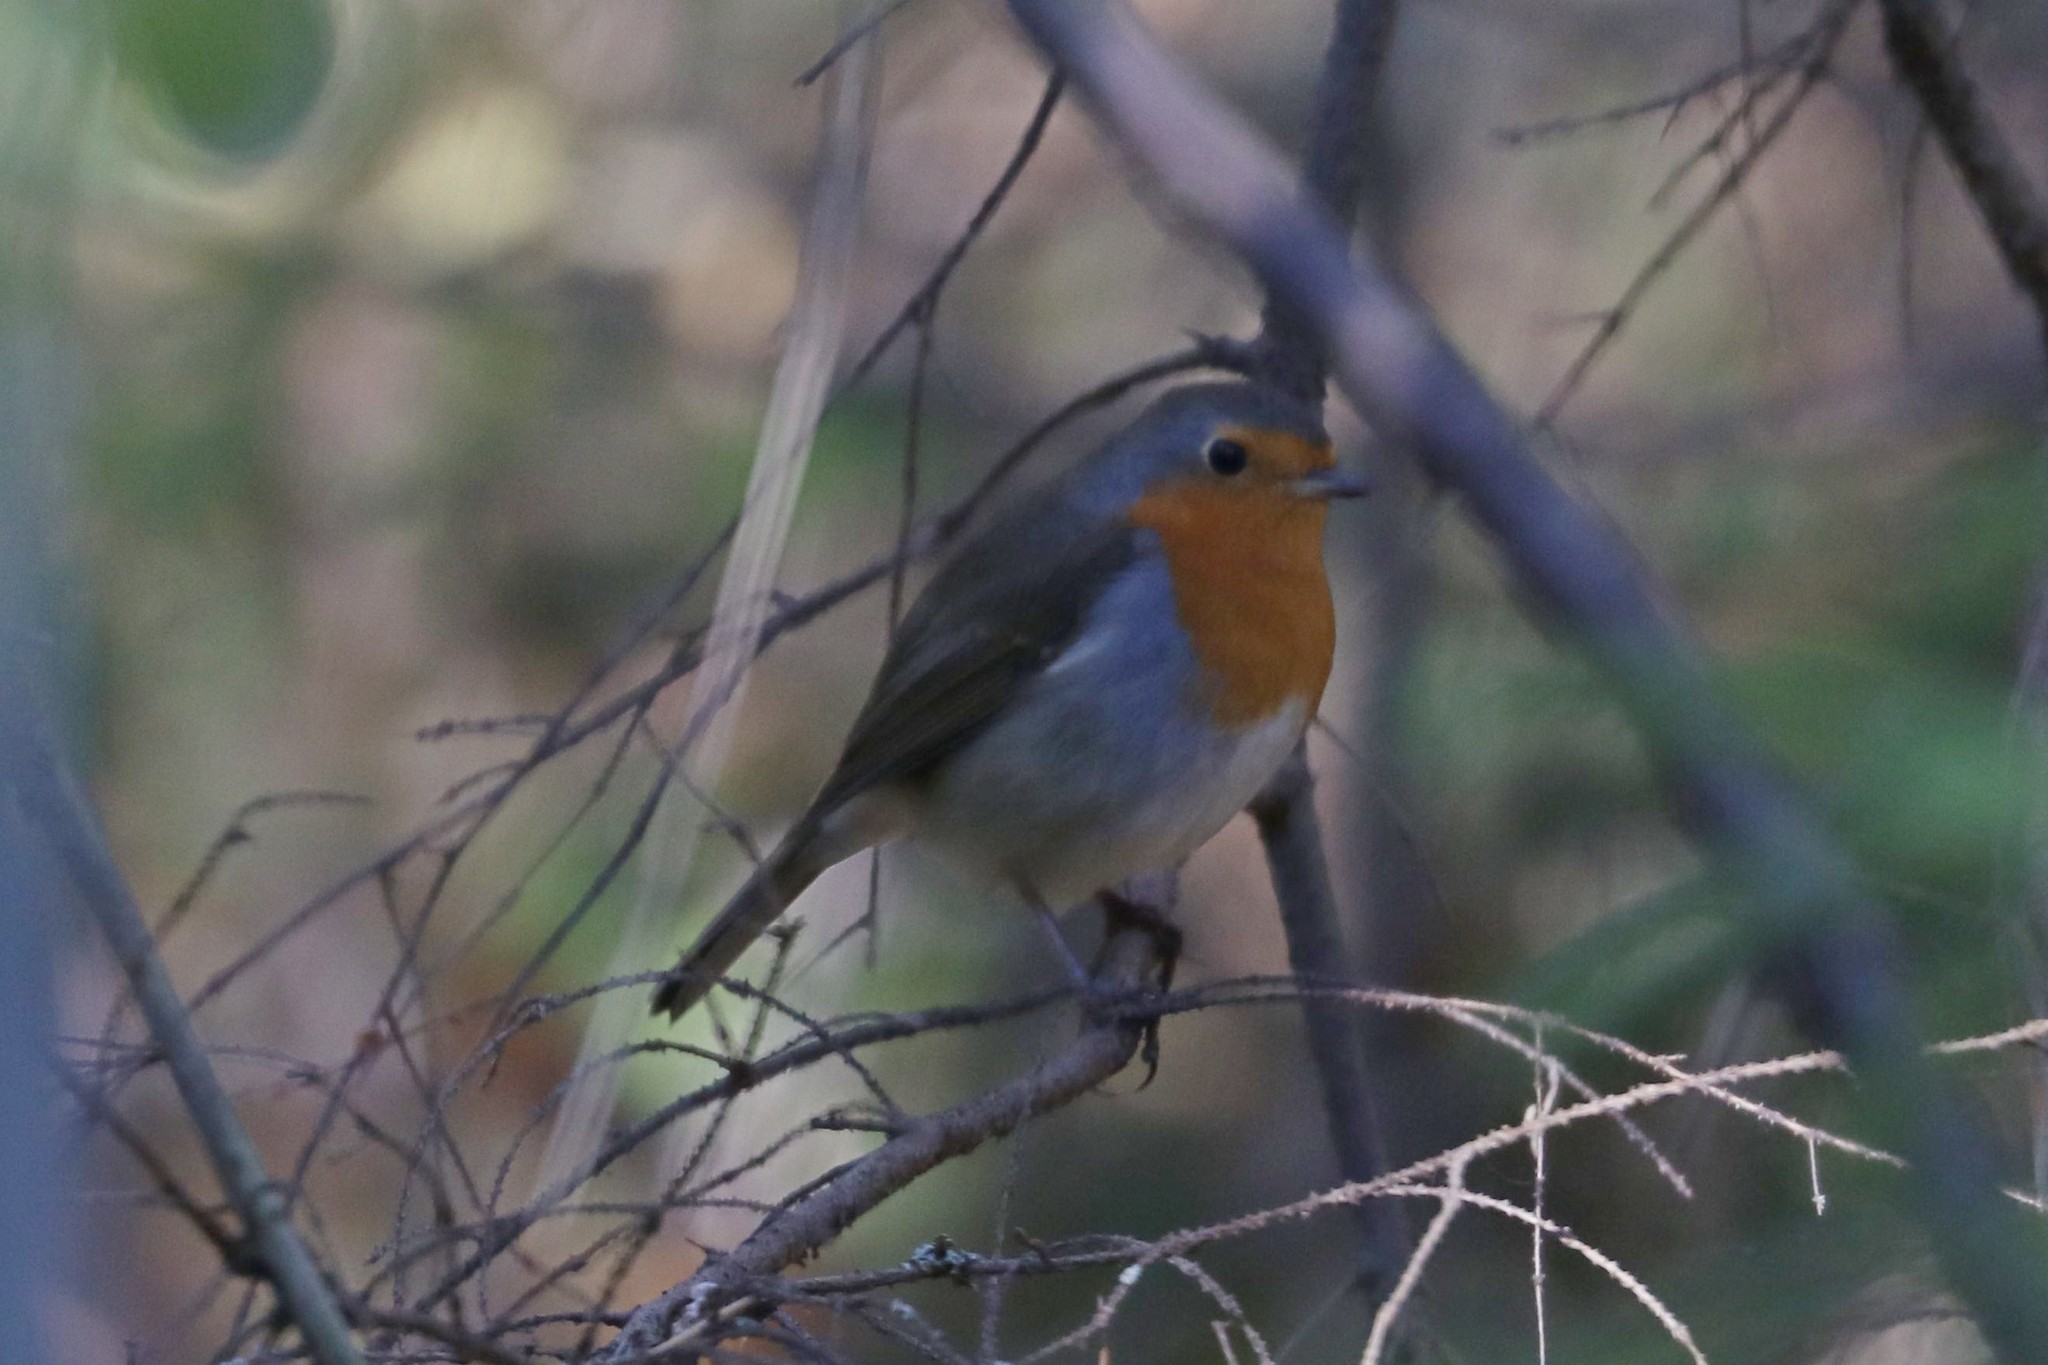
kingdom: Animalia
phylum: Chordata
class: Aves
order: Passeriformes
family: Muscicapidae
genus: Erithacus
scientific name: Erithacus rubecula
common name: European robin
